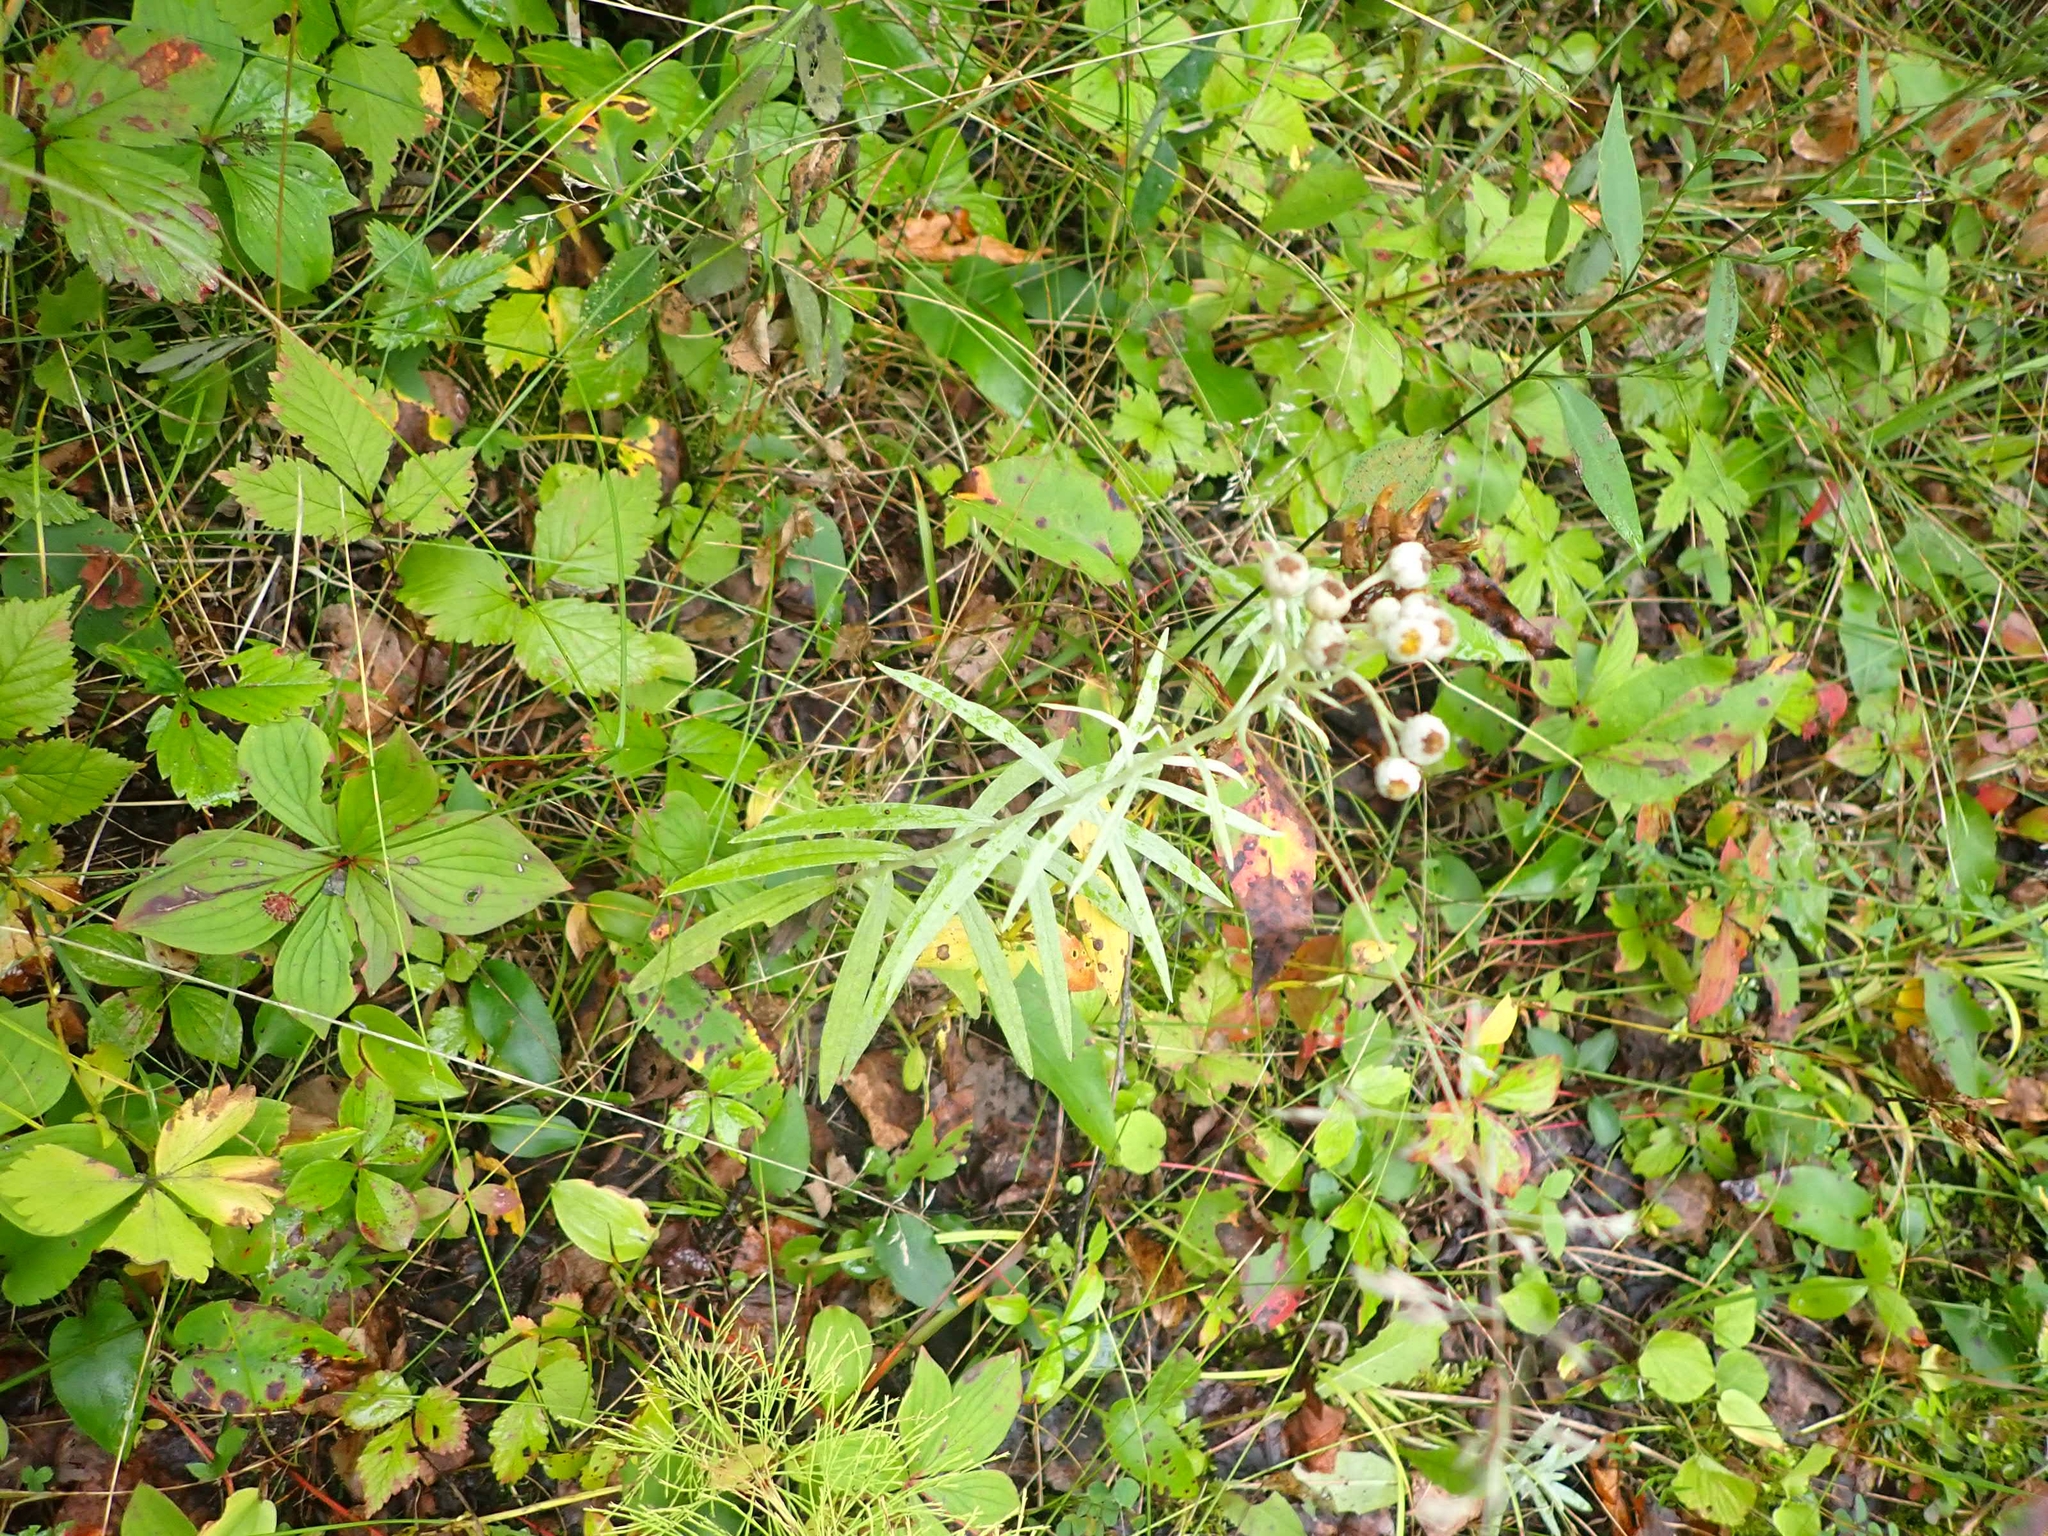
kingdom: Plantae
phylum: Tracheophyta
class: Magnoliopsida
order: Asterales
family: Asteraceae
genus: Anaphalis
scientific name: Anaphalis margaritacea
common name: Pearly everlasting
